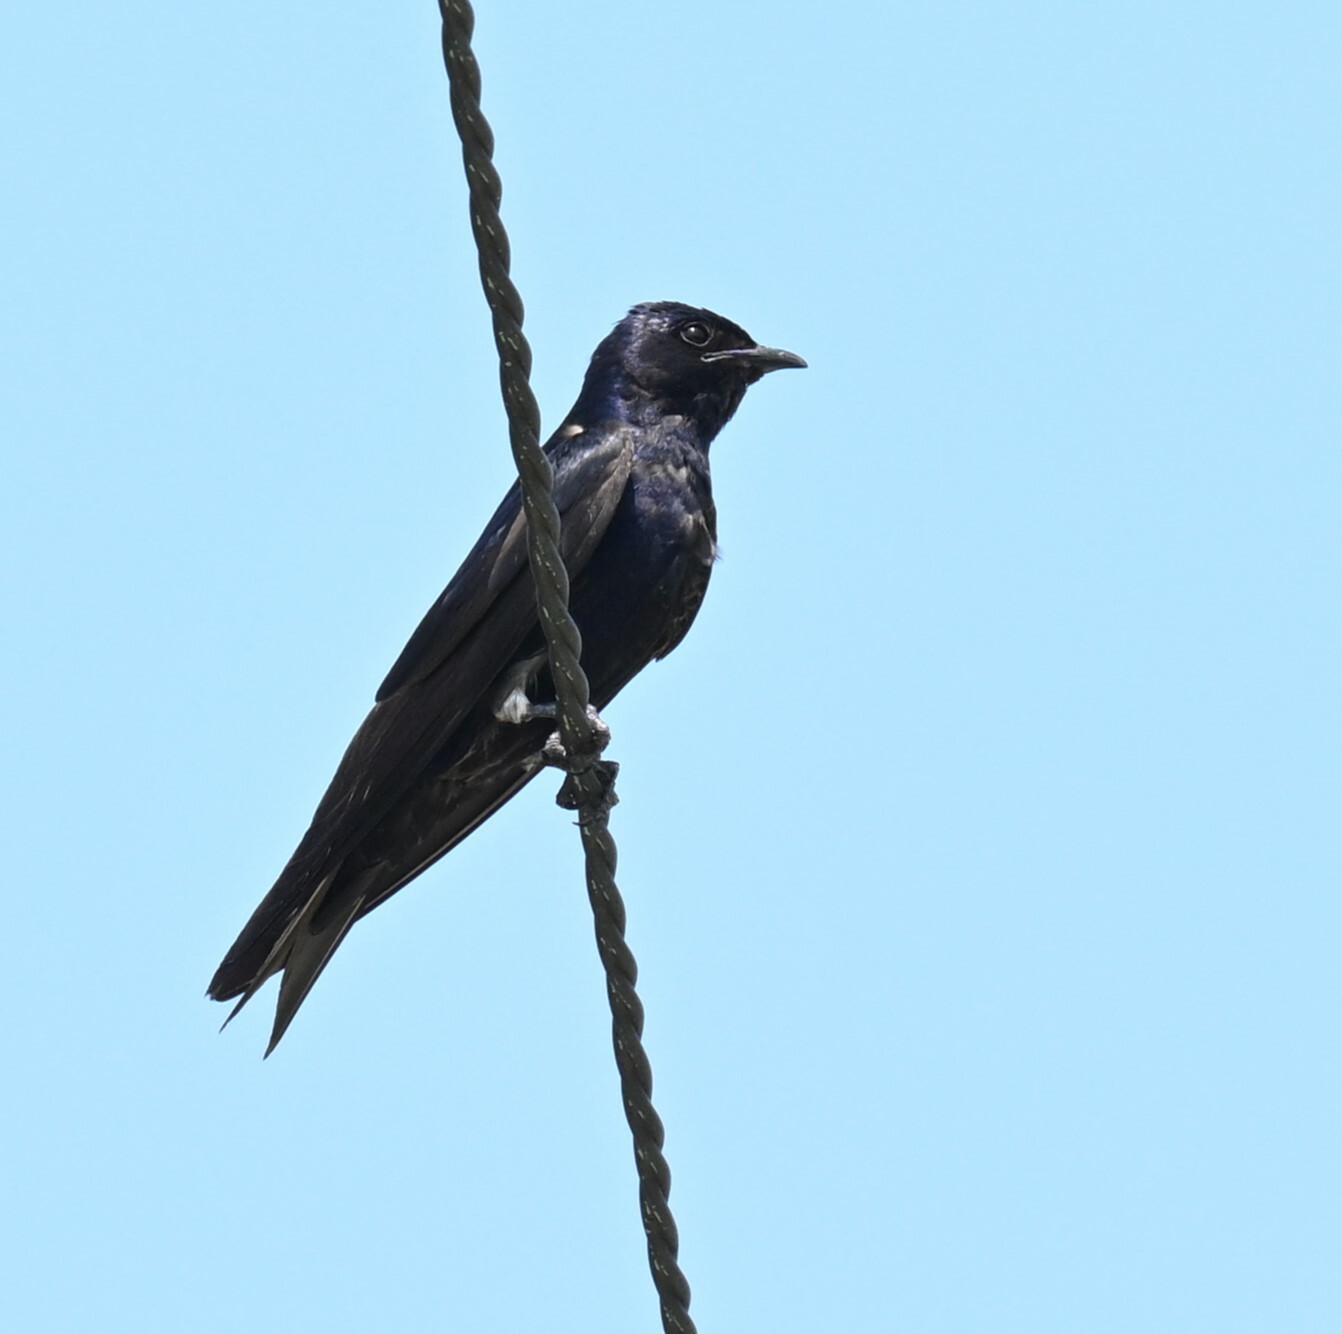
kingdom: Animalia
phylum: Chordata
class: Aves
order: Passeriformes
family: Hirundinidae
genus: Progne
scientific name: Progne subis
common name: Purple martin
